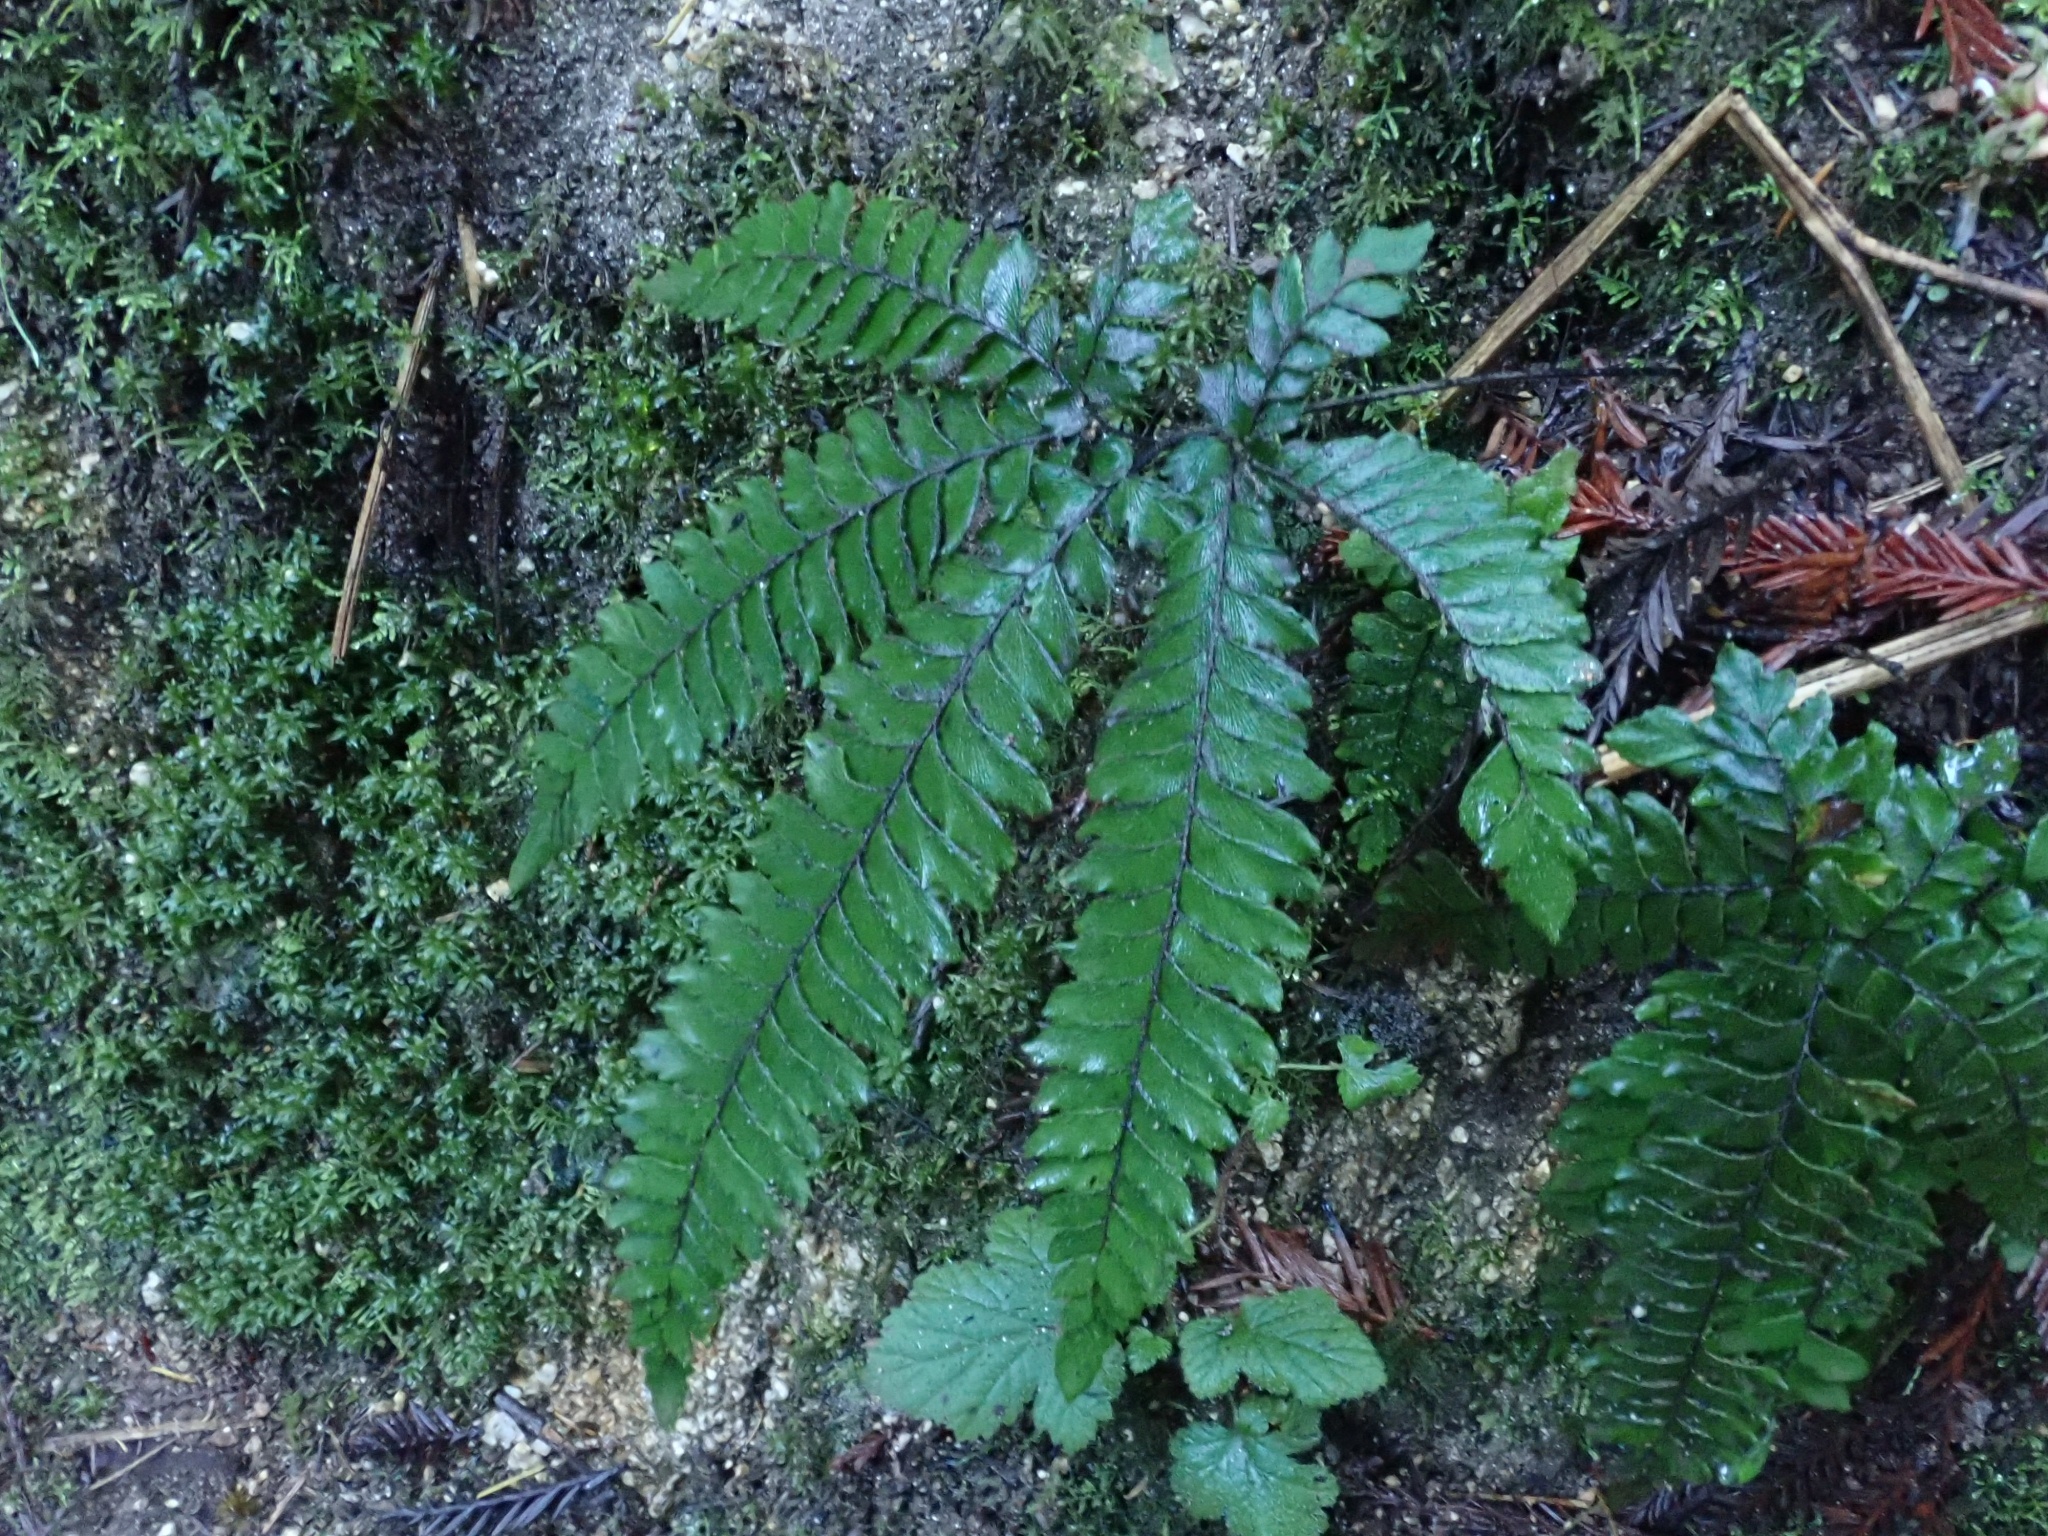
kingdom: Plantae
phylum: Tracheophyta
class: Polypodiopsida
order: Polypodiales
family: Pteridaceae
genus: Adiantum
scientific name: Adiantum aleuticum
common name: Aleutian maidenhair fern
